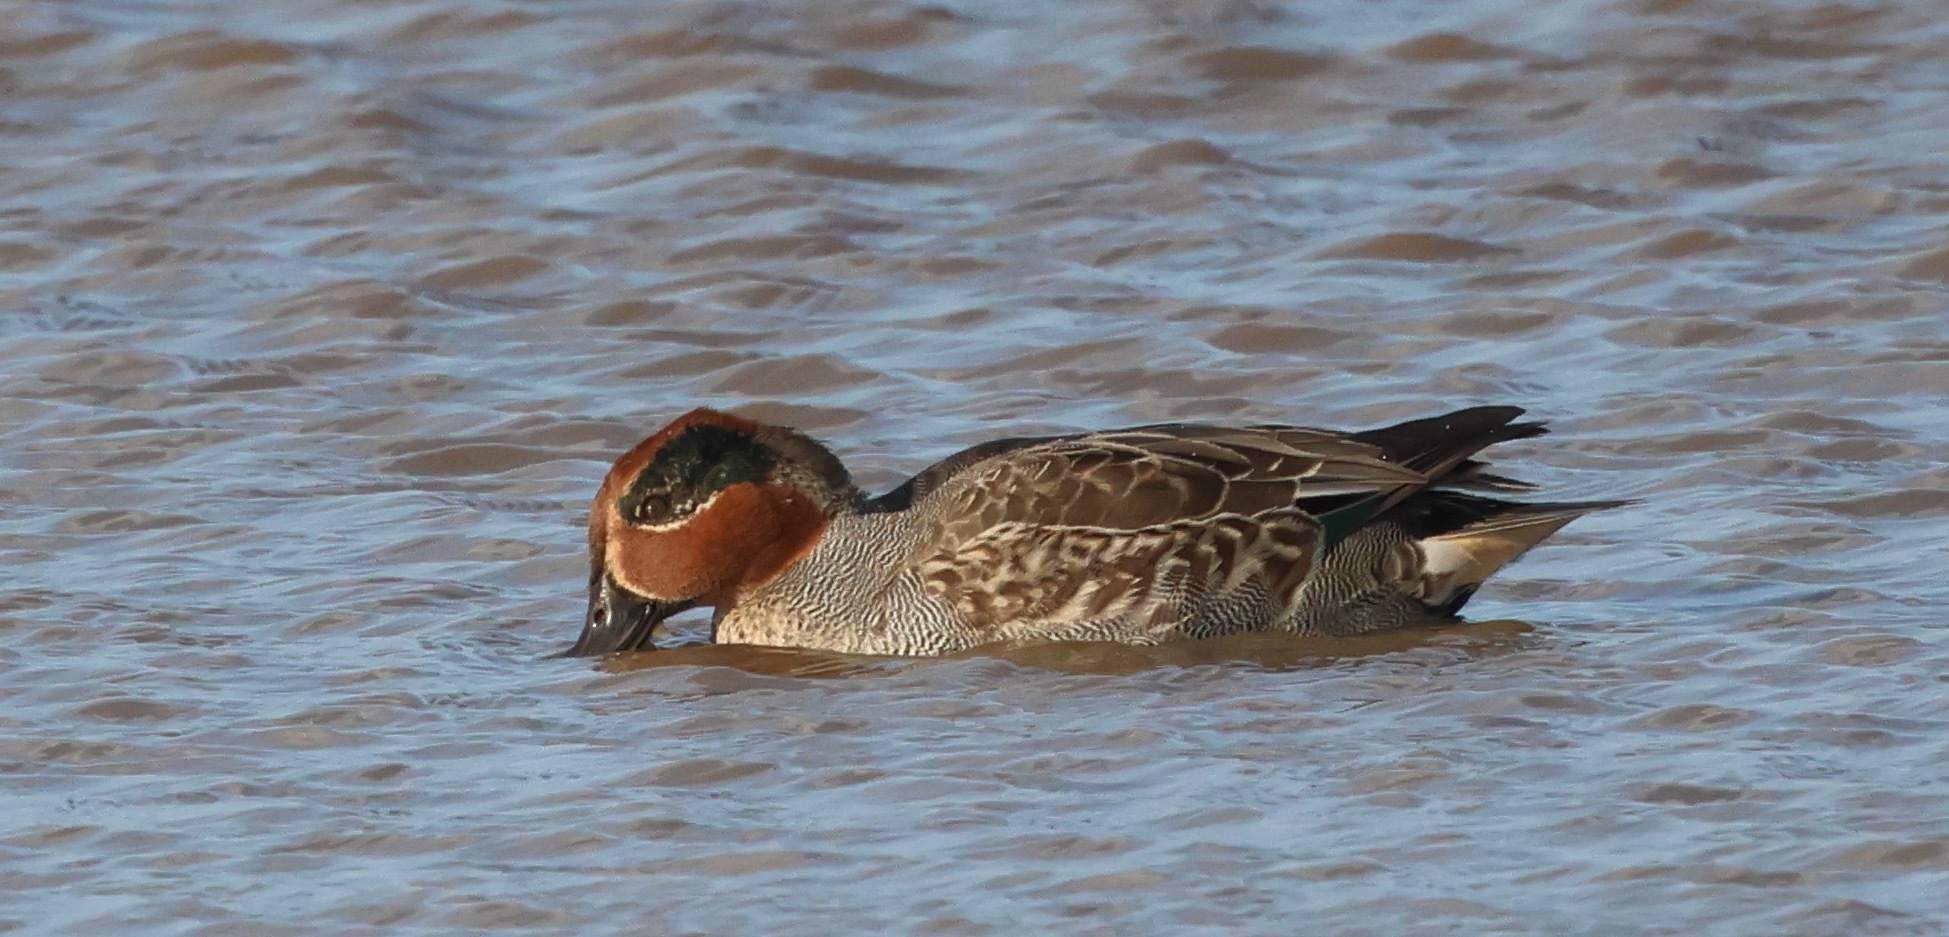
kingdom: Animalia
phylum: Chordata
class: Aves
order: Anseriformes
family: Anatidae
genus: Anas
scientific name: Anas crecca
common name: Eurasian teal
